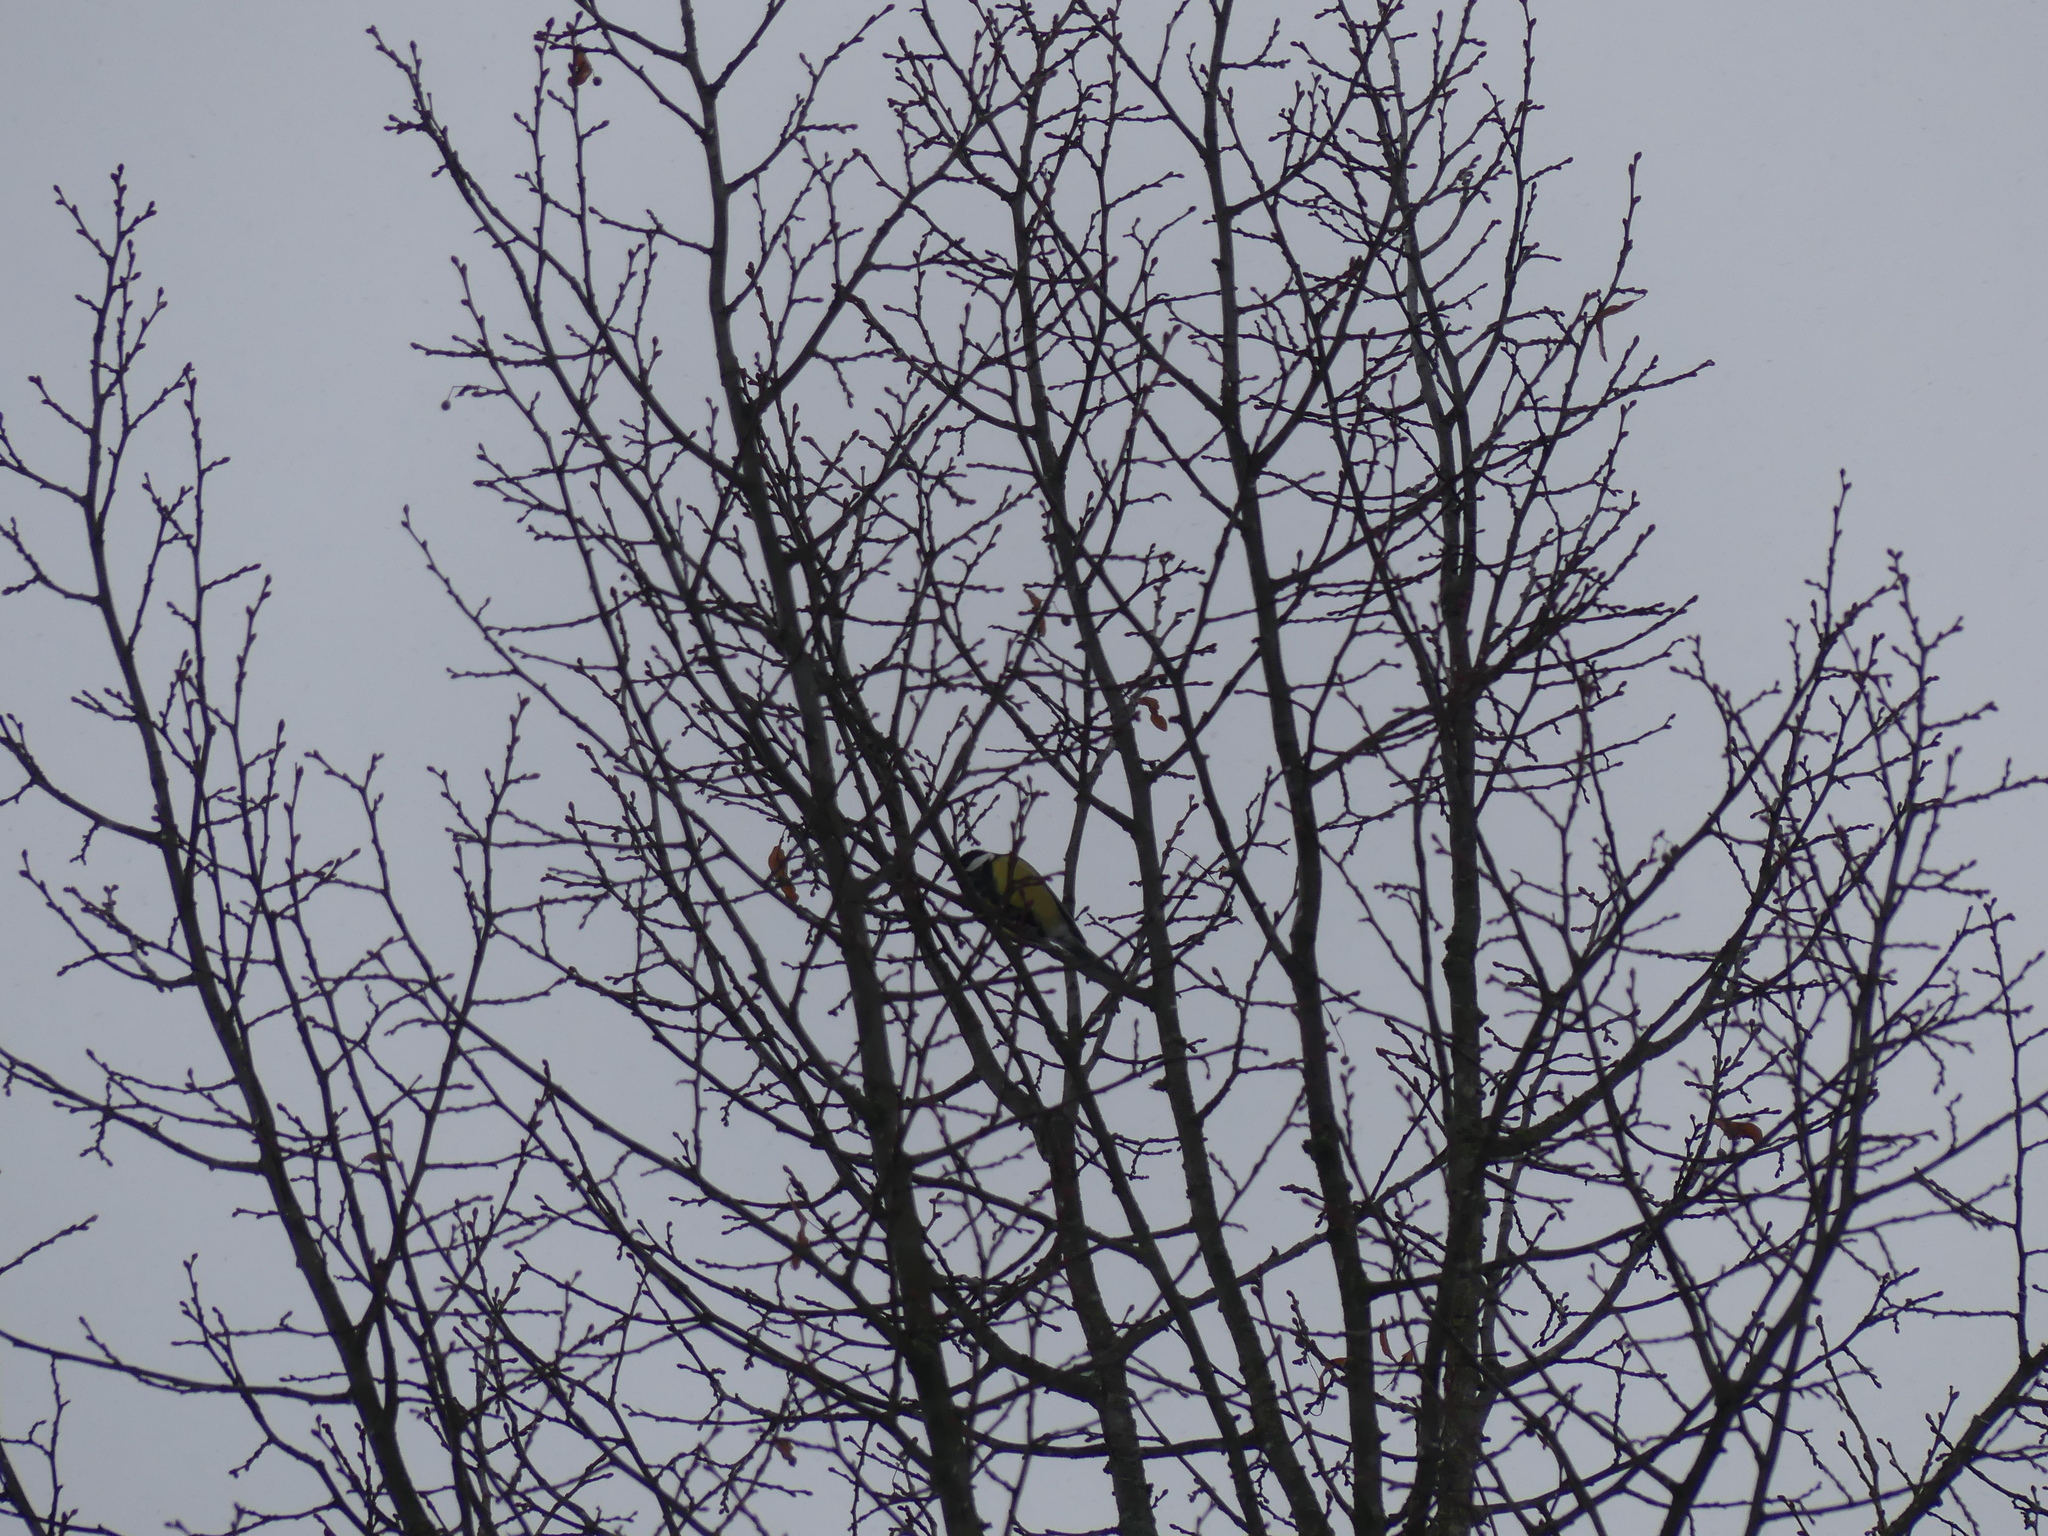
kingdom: Animalia
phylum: Chordata
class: Aves
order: Passeriformes
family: Paridae
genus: Parus
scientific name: Parus major
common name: Great tit
